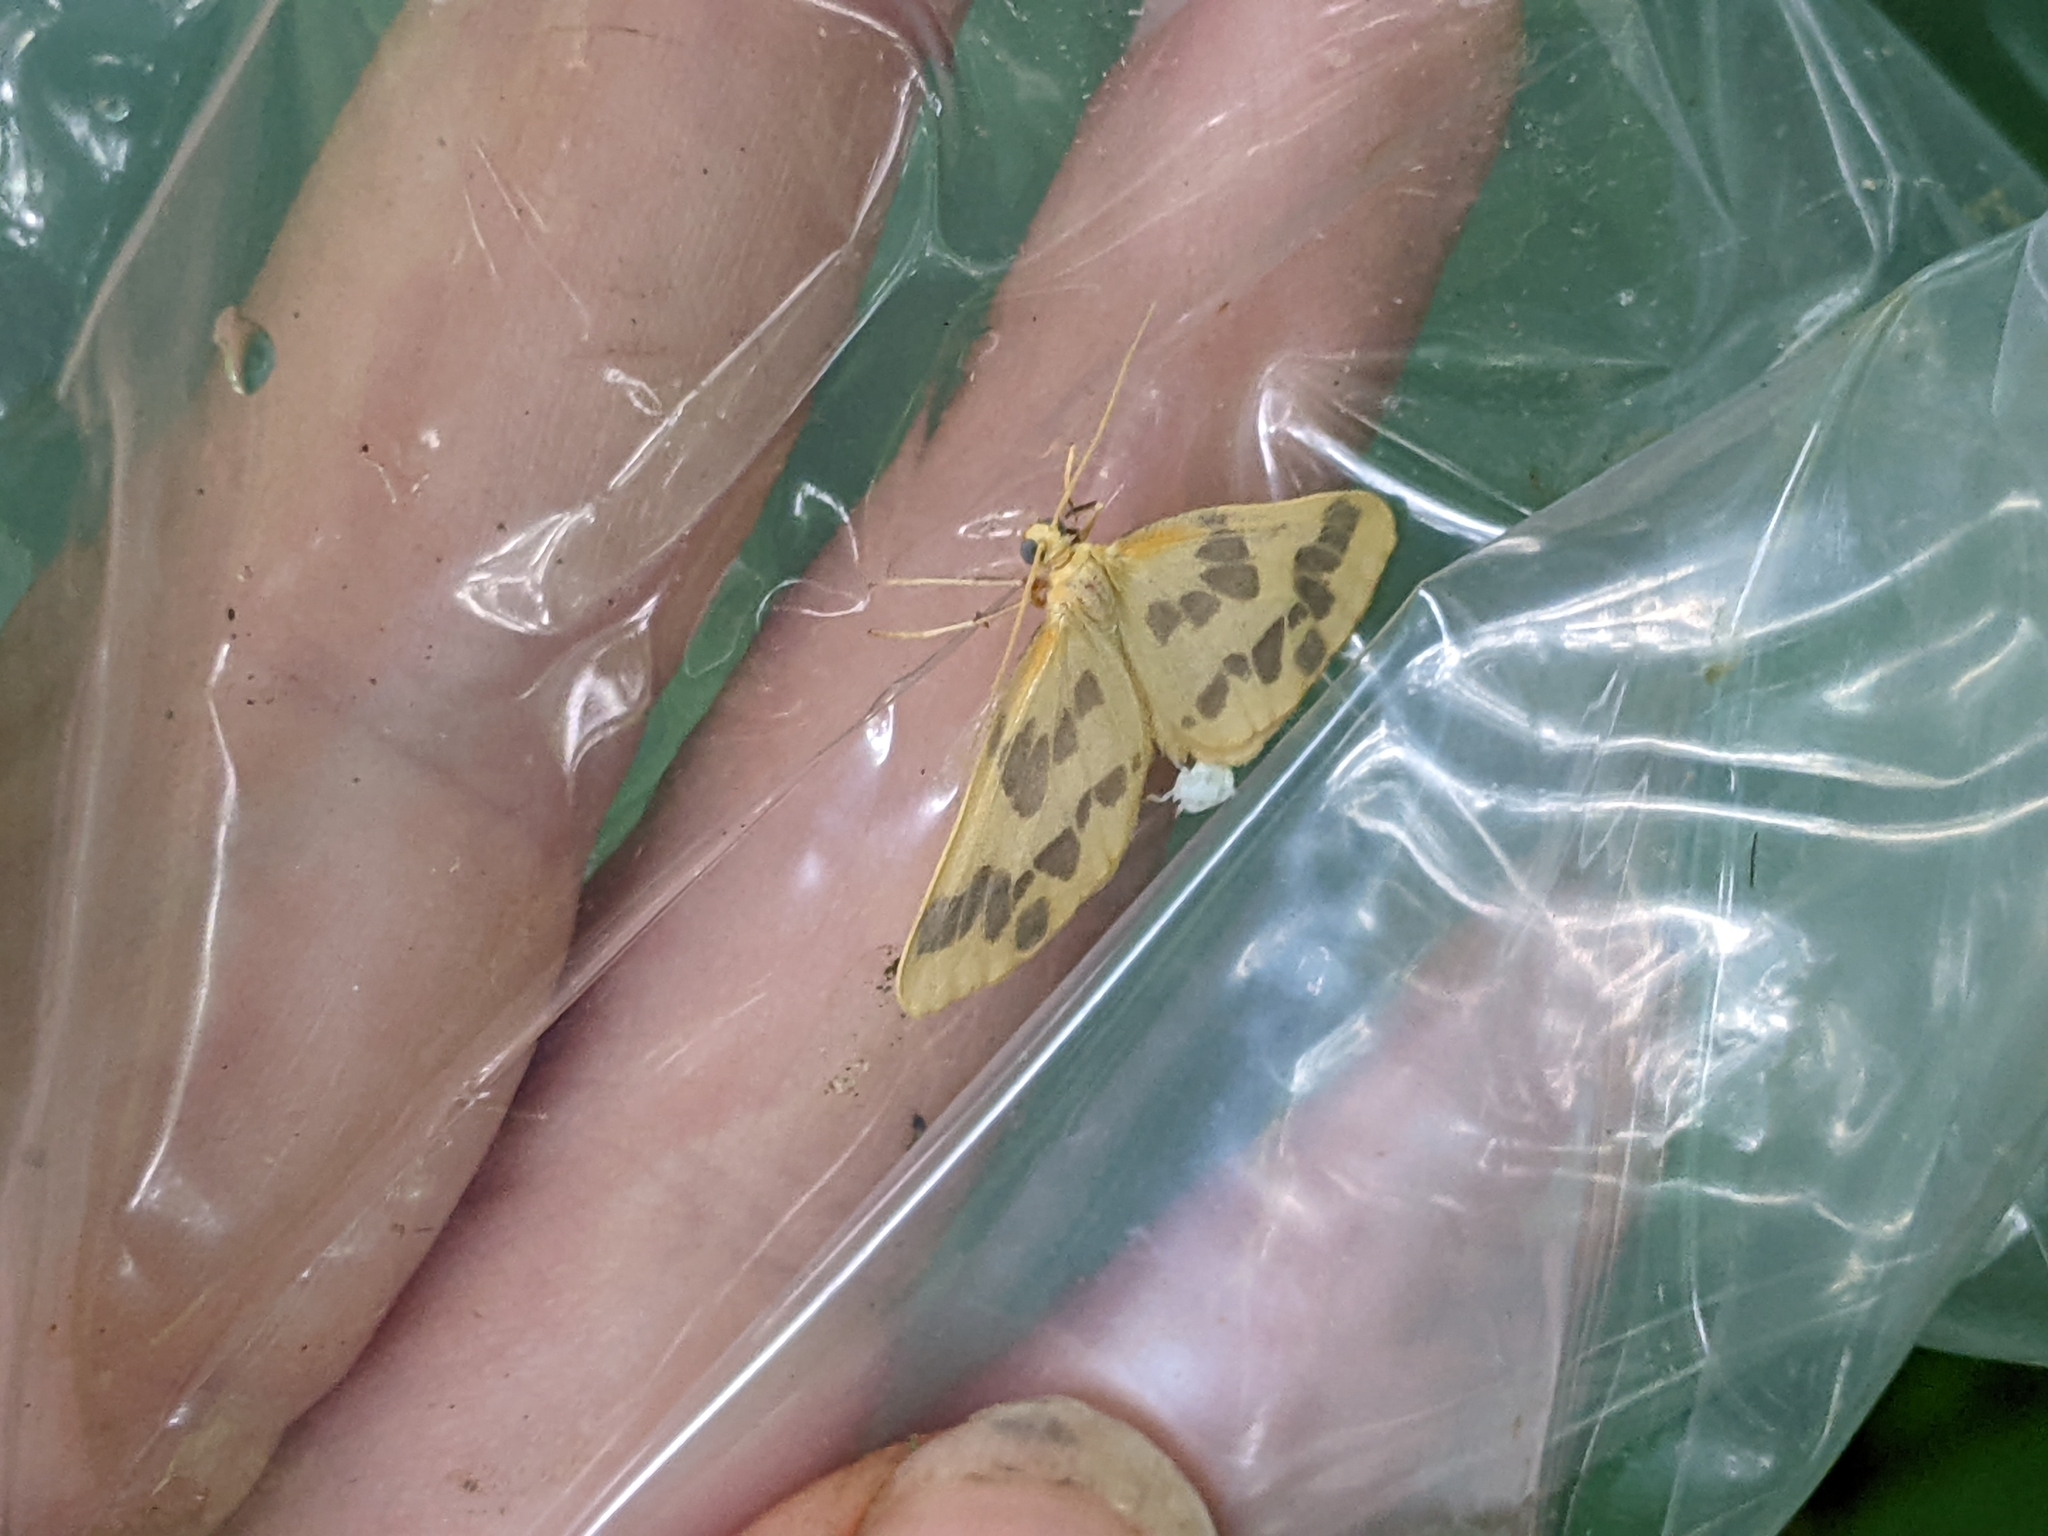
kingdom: Animalia
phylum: Arthropoda
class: Insecta
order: Lepidoptera
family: Geometridae
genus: Eubaphe
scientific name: Eubaphe mendica
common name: Beggar
